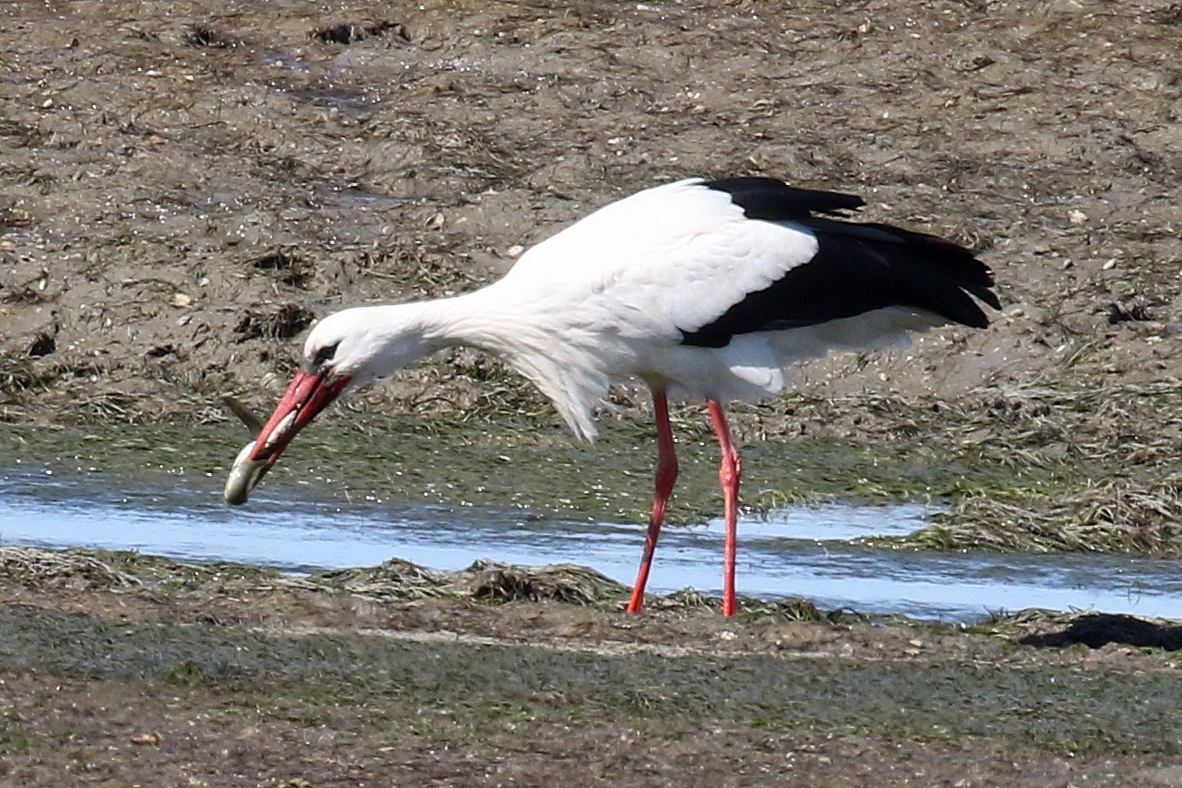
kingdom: Animalia
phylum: Chordata
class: Aves
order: Ciconiiformes
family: Ciconiidae
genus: Ciconia
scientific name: Ciconia ciconia
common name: White stork
